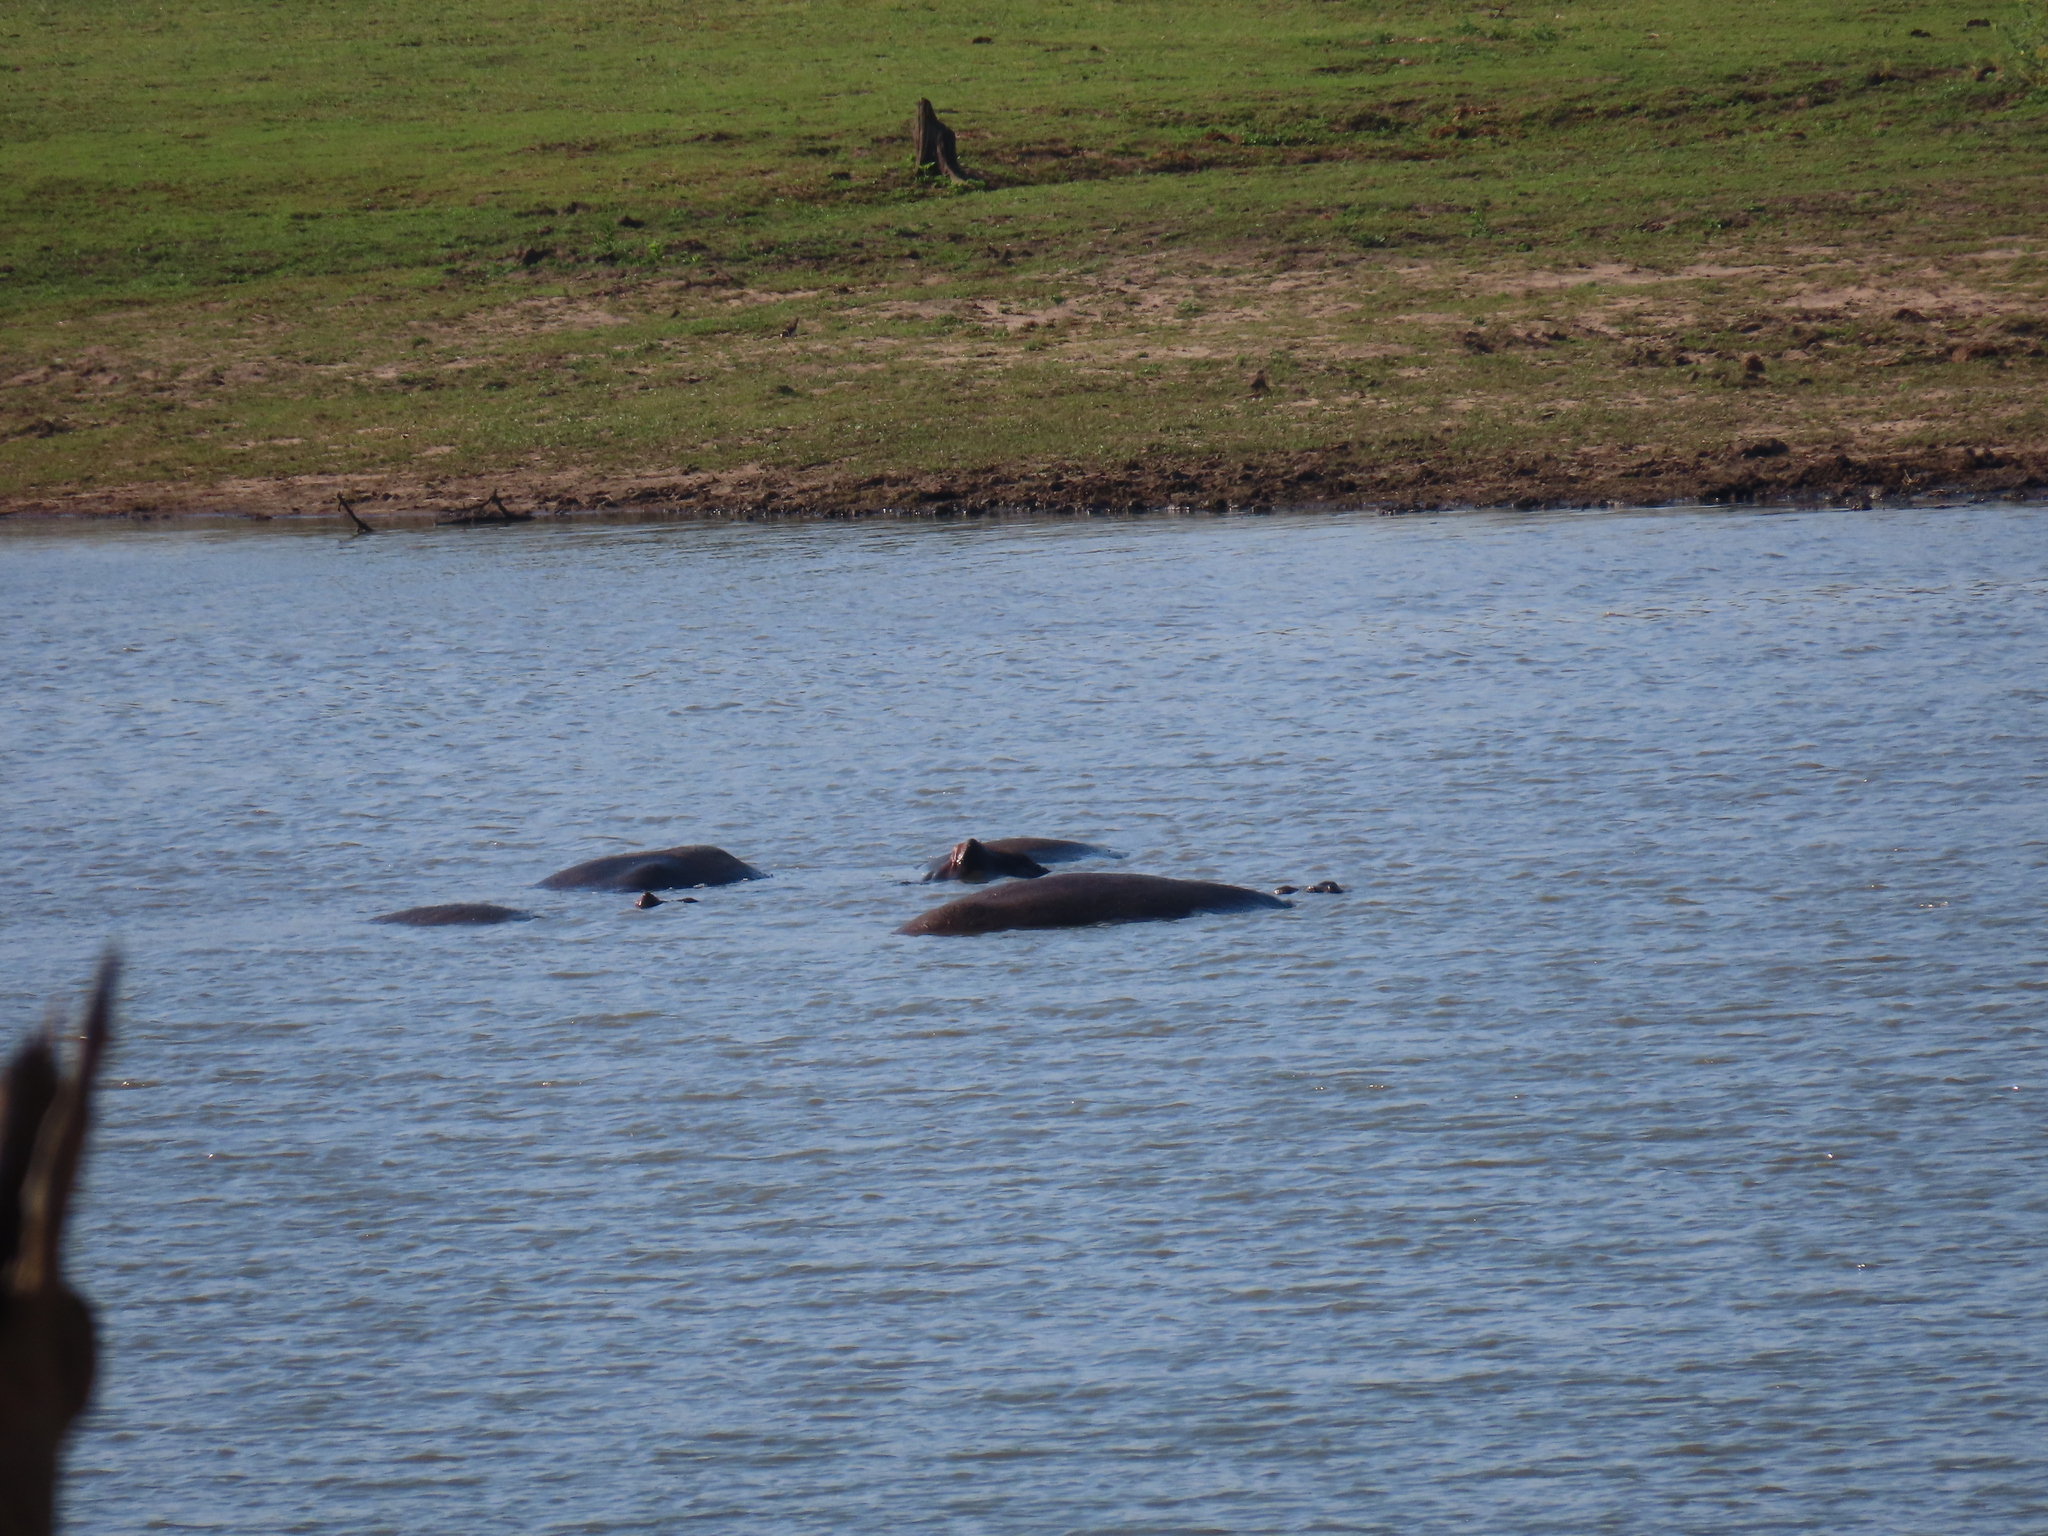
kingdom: Animalia
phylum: Chordata
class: Mammalia
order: Artiodactyla
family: Hippopotamidae
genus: Hippopotamus
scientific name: Hippopotamus amphibius
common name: Common hippopotamus
